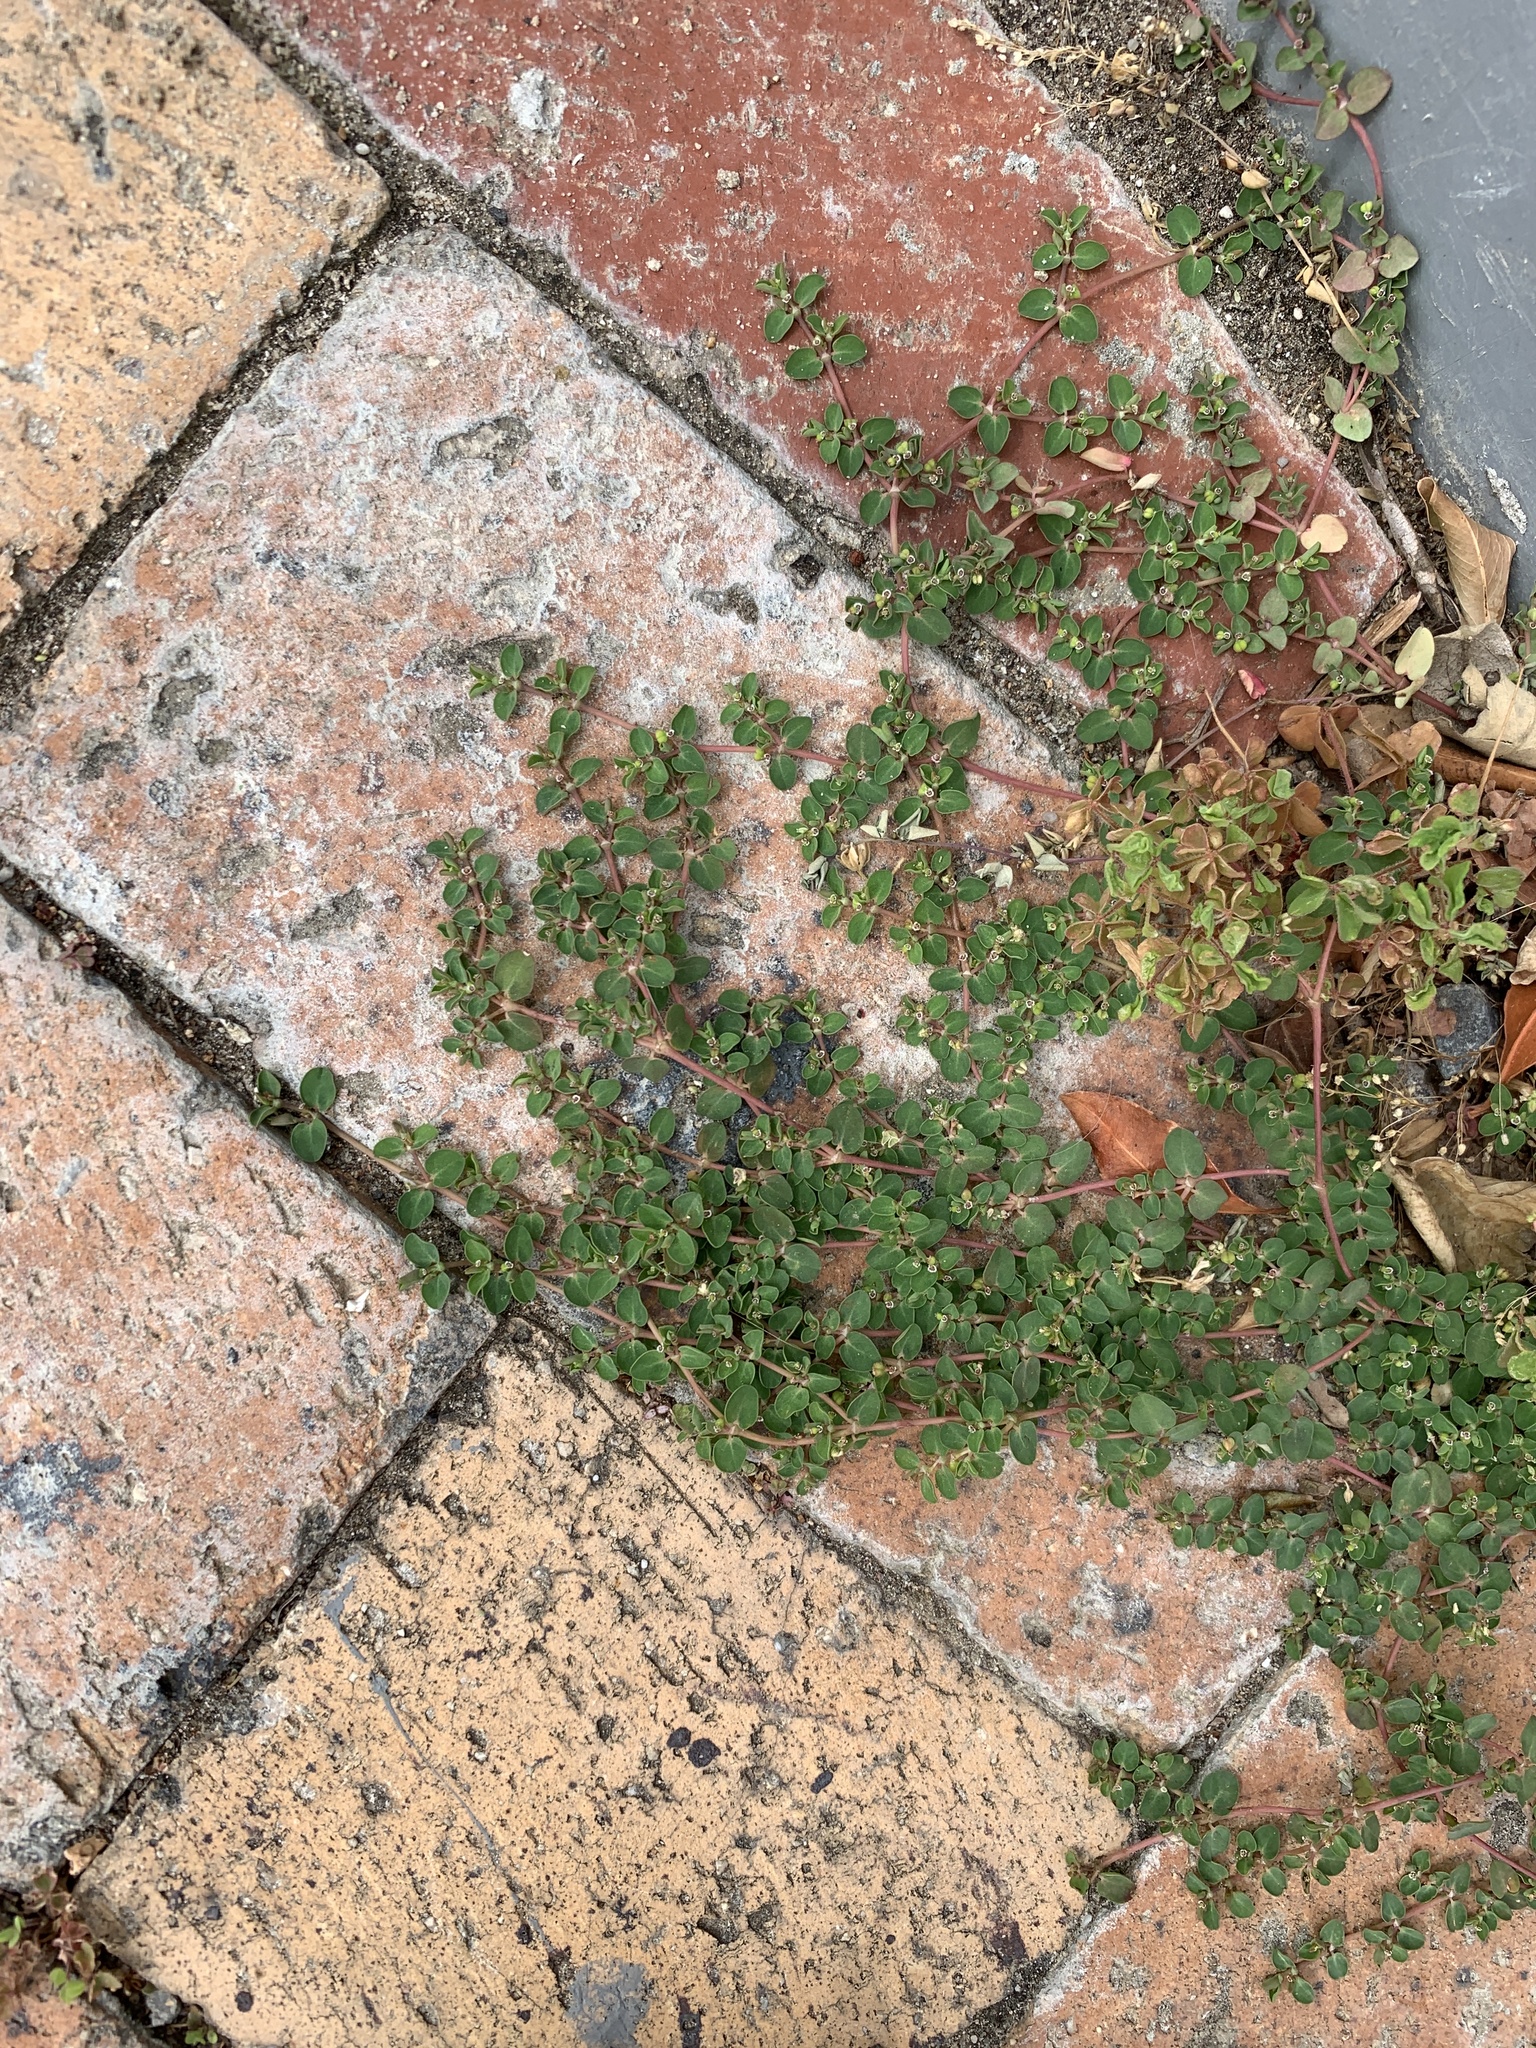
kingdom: Plantae
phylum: Tracheophyta
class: Magnoliopsida
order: Malpighiales
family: Euphorbiaceae
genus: Euphorbia
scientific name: Euphorbia serpens
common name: Matted sandmat
